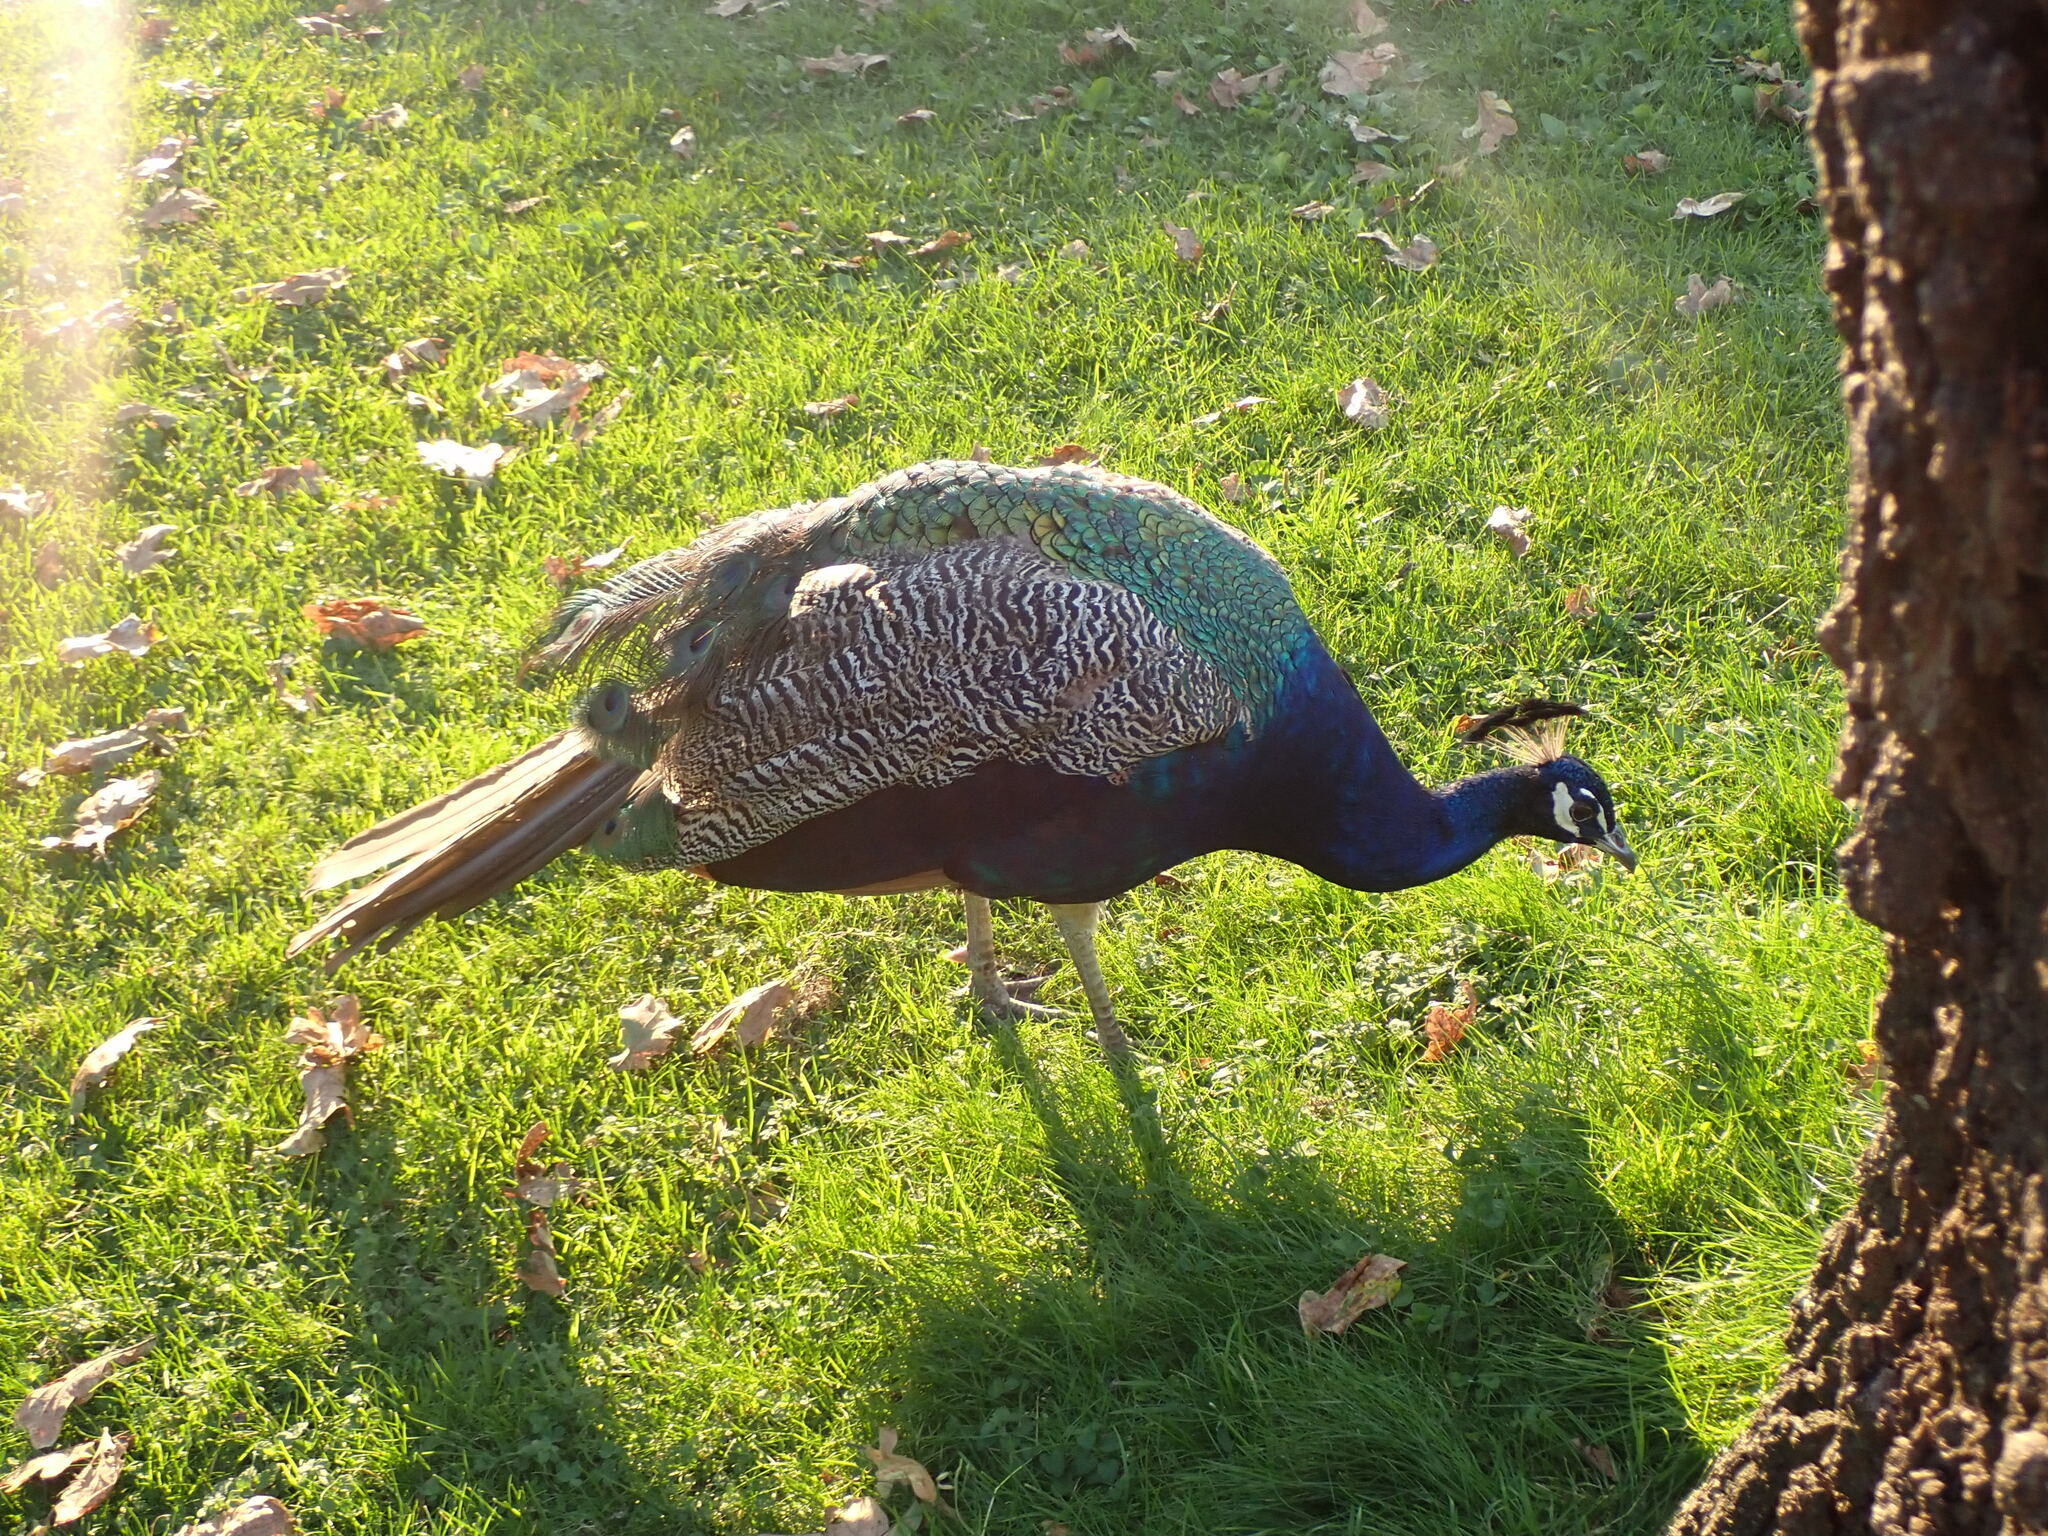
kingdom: Animalia
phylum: Chordata
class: Aves
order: Galliformes
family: Phasianidae
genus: Pavo
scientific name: Pavo cristatus
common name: Indian peafowl
